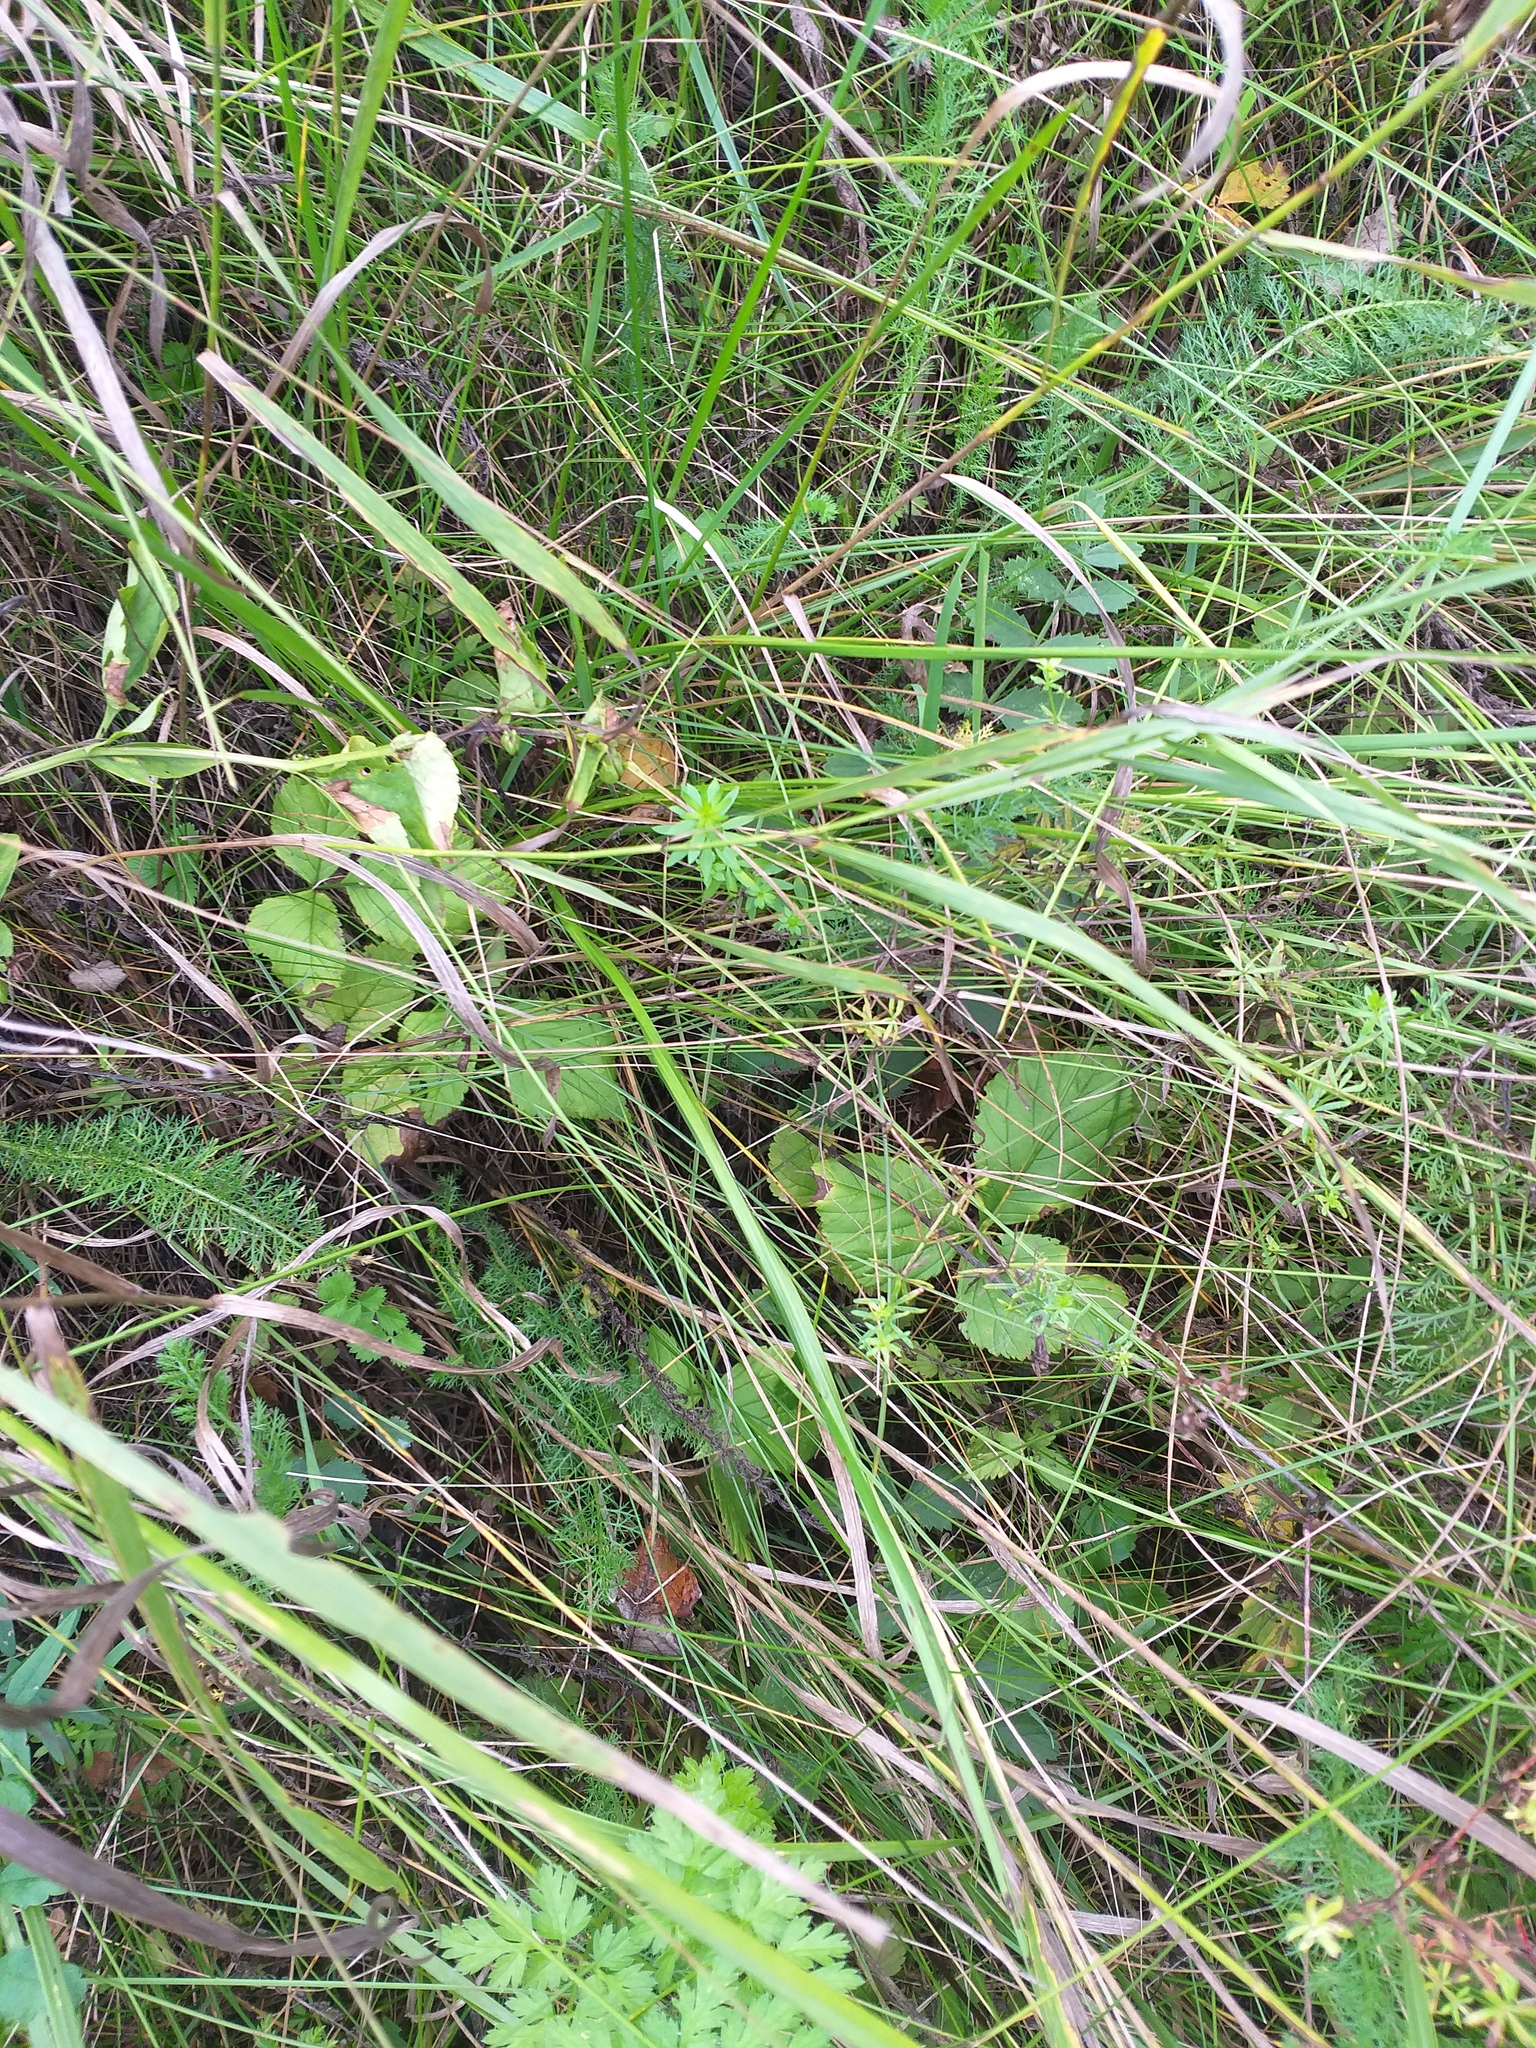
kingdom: Plantae
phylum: Tracheophyta
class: Magnoliopsida
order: Rosales
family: Rosaceae
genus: Rubus
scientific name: Rubus saxatilis
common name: Stone bramble
